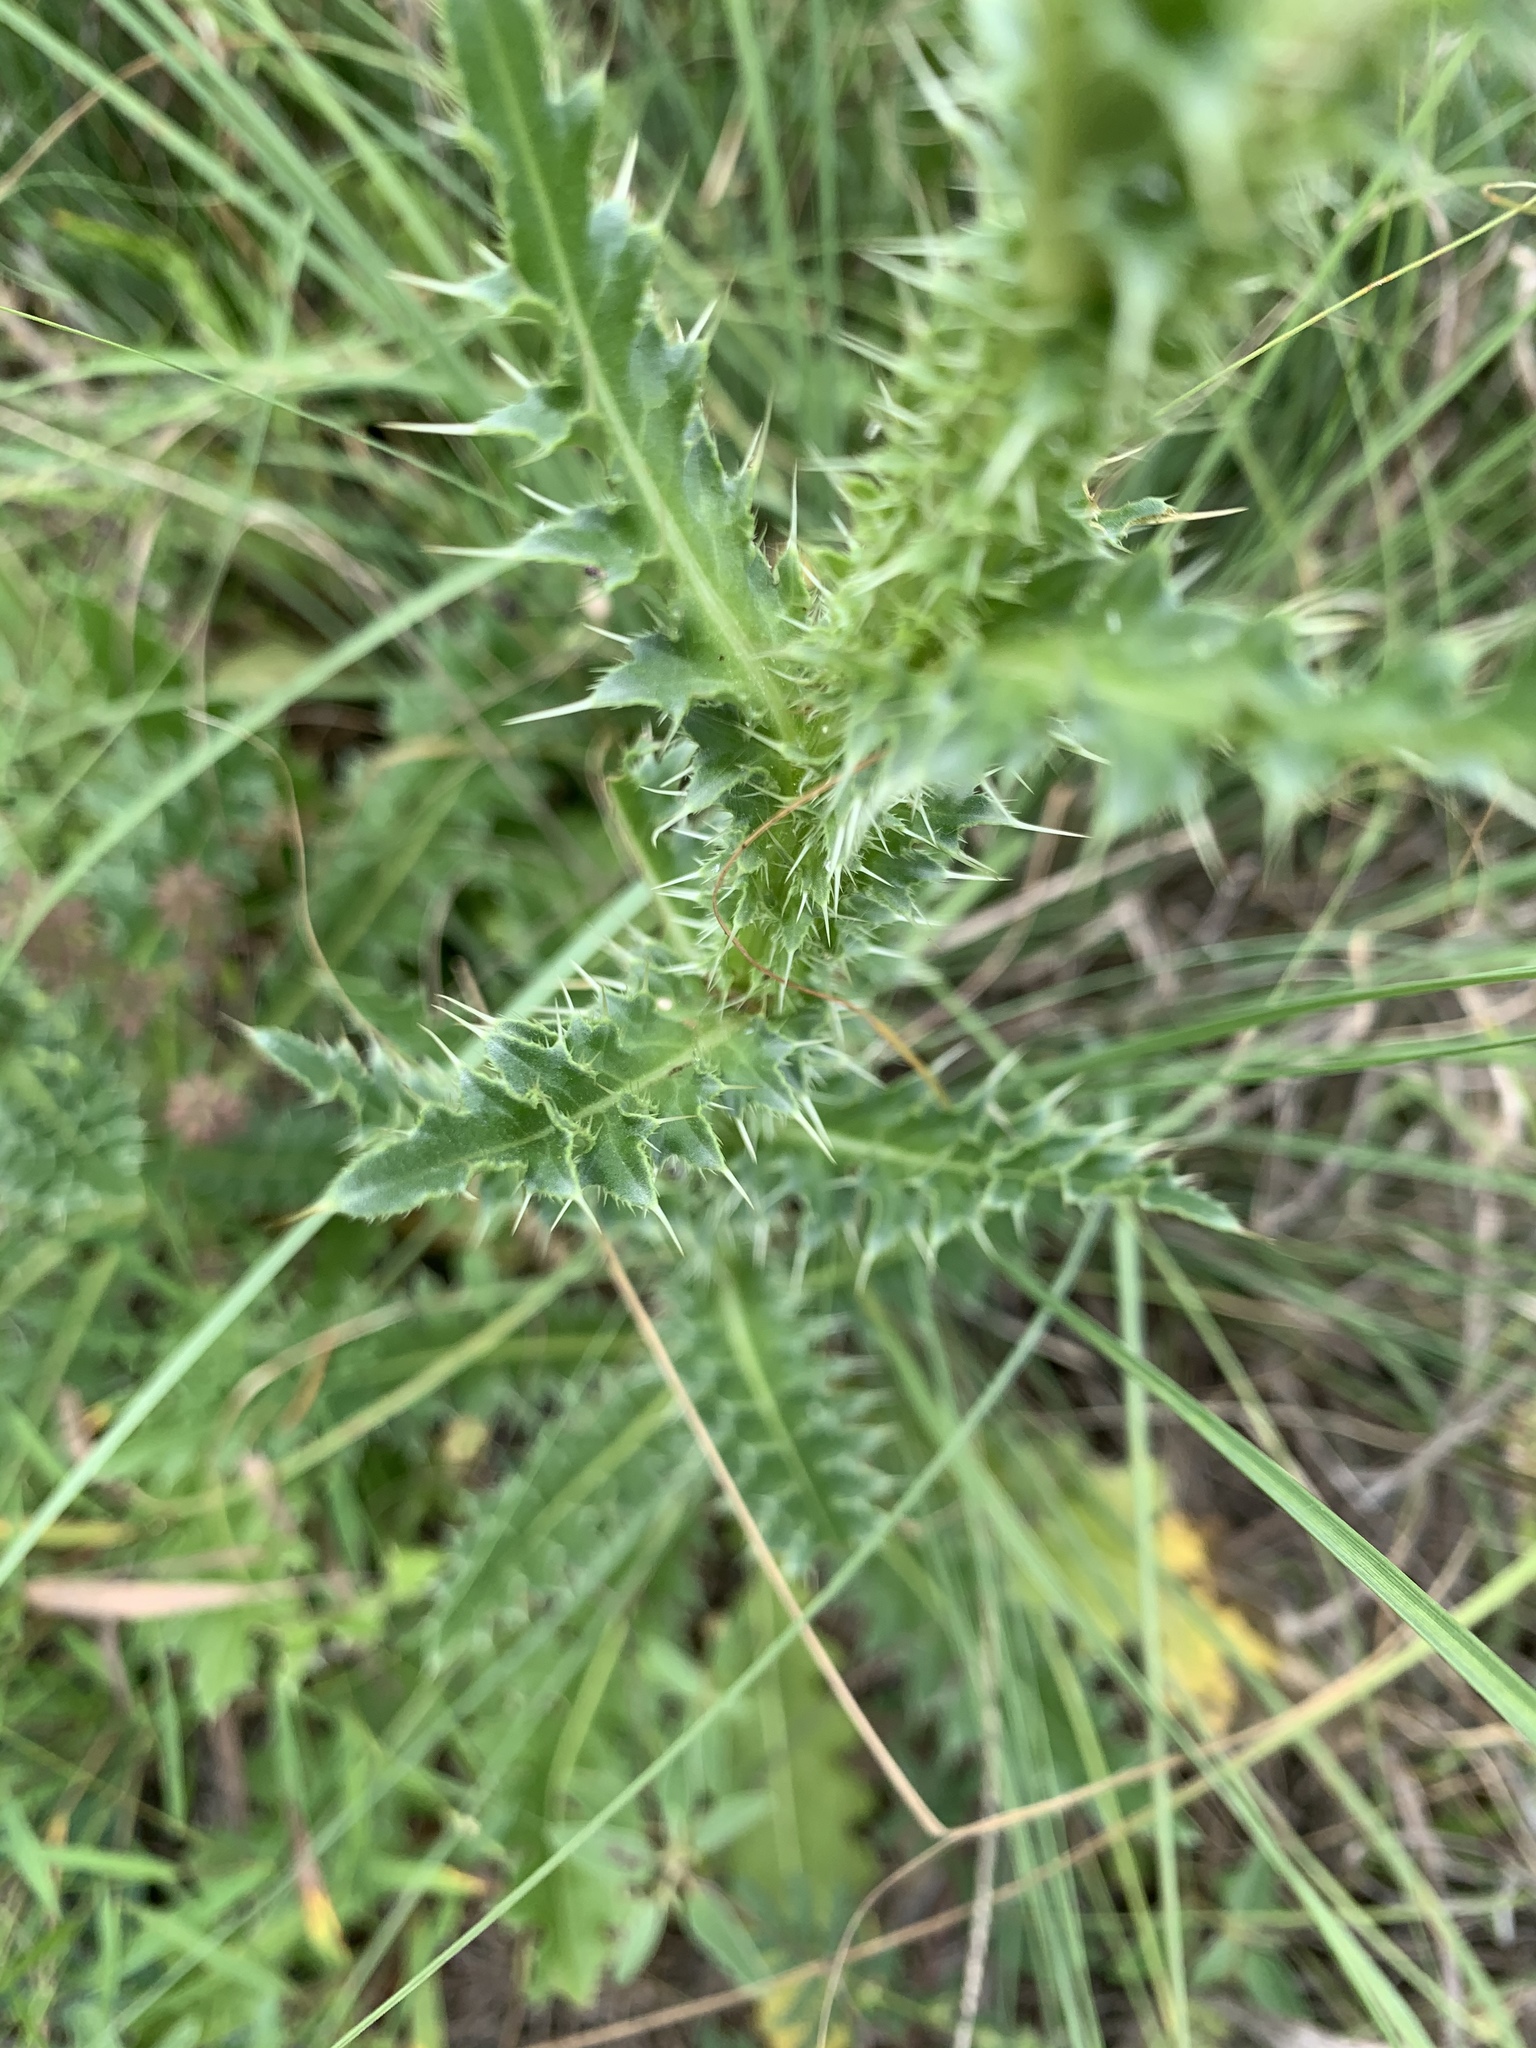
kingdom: Plantae
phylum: Tracheophyta
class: Magnoliopsida
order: Asterales
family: Asteraceae
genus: Carduus
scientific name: Carduus nutans
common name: Musk thistle
